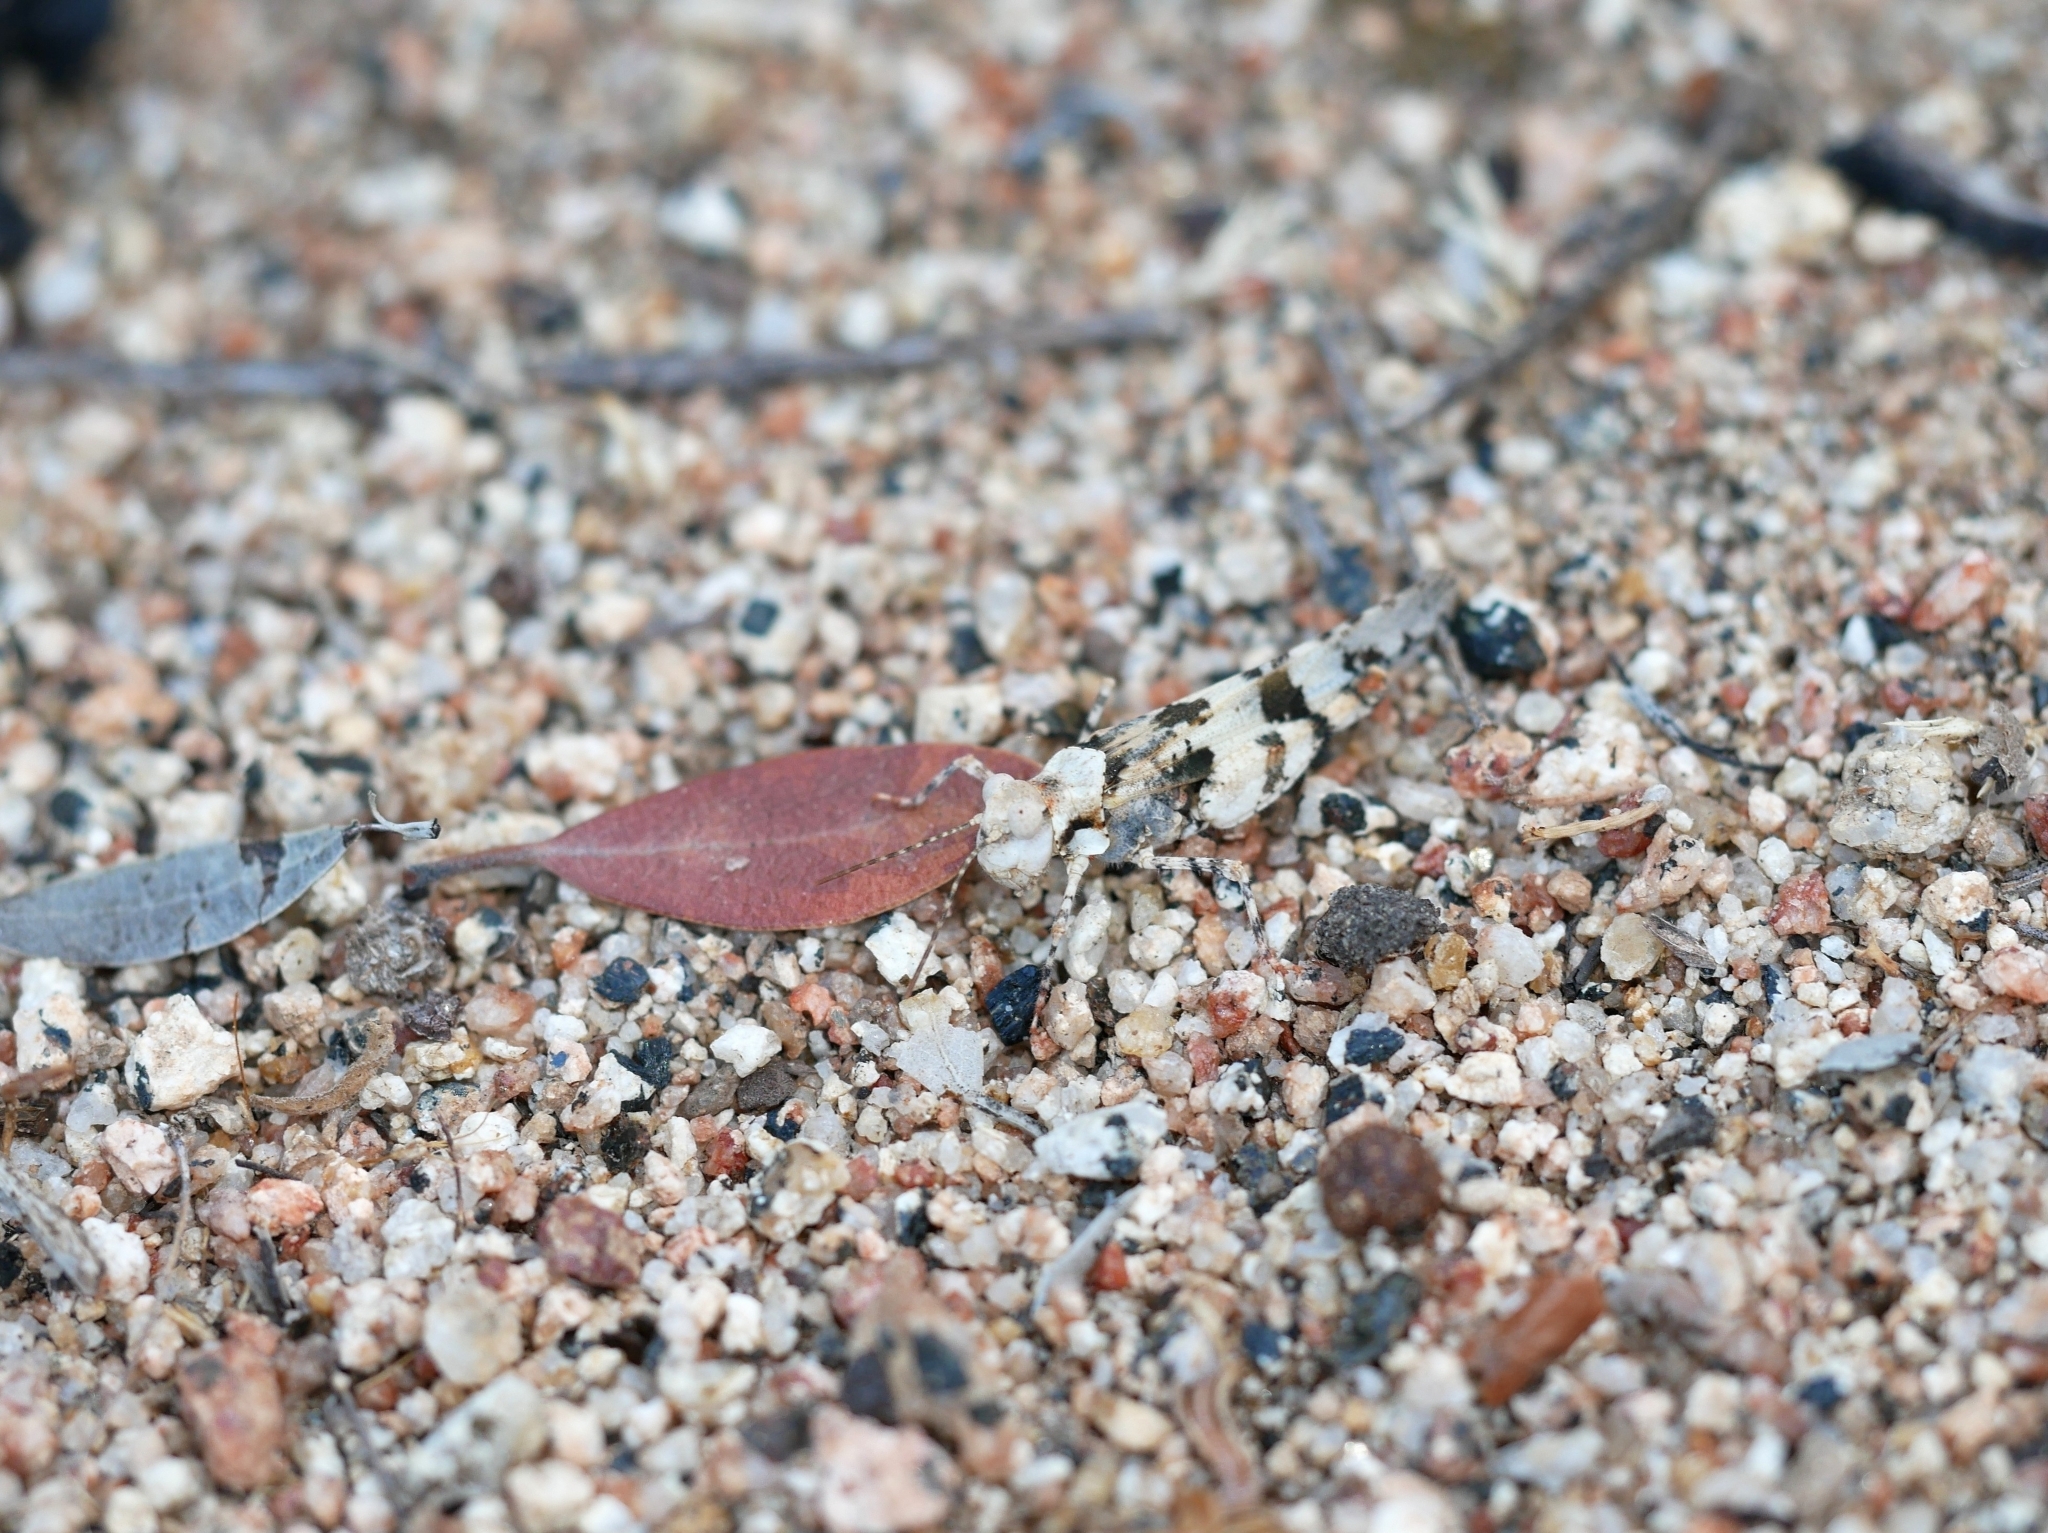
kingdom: Animalia
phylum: Arthropoda
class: Insecta
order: Orthoptera
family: Acrididae
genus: Trimerotropis
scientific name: Trimerotropis inconspicua
